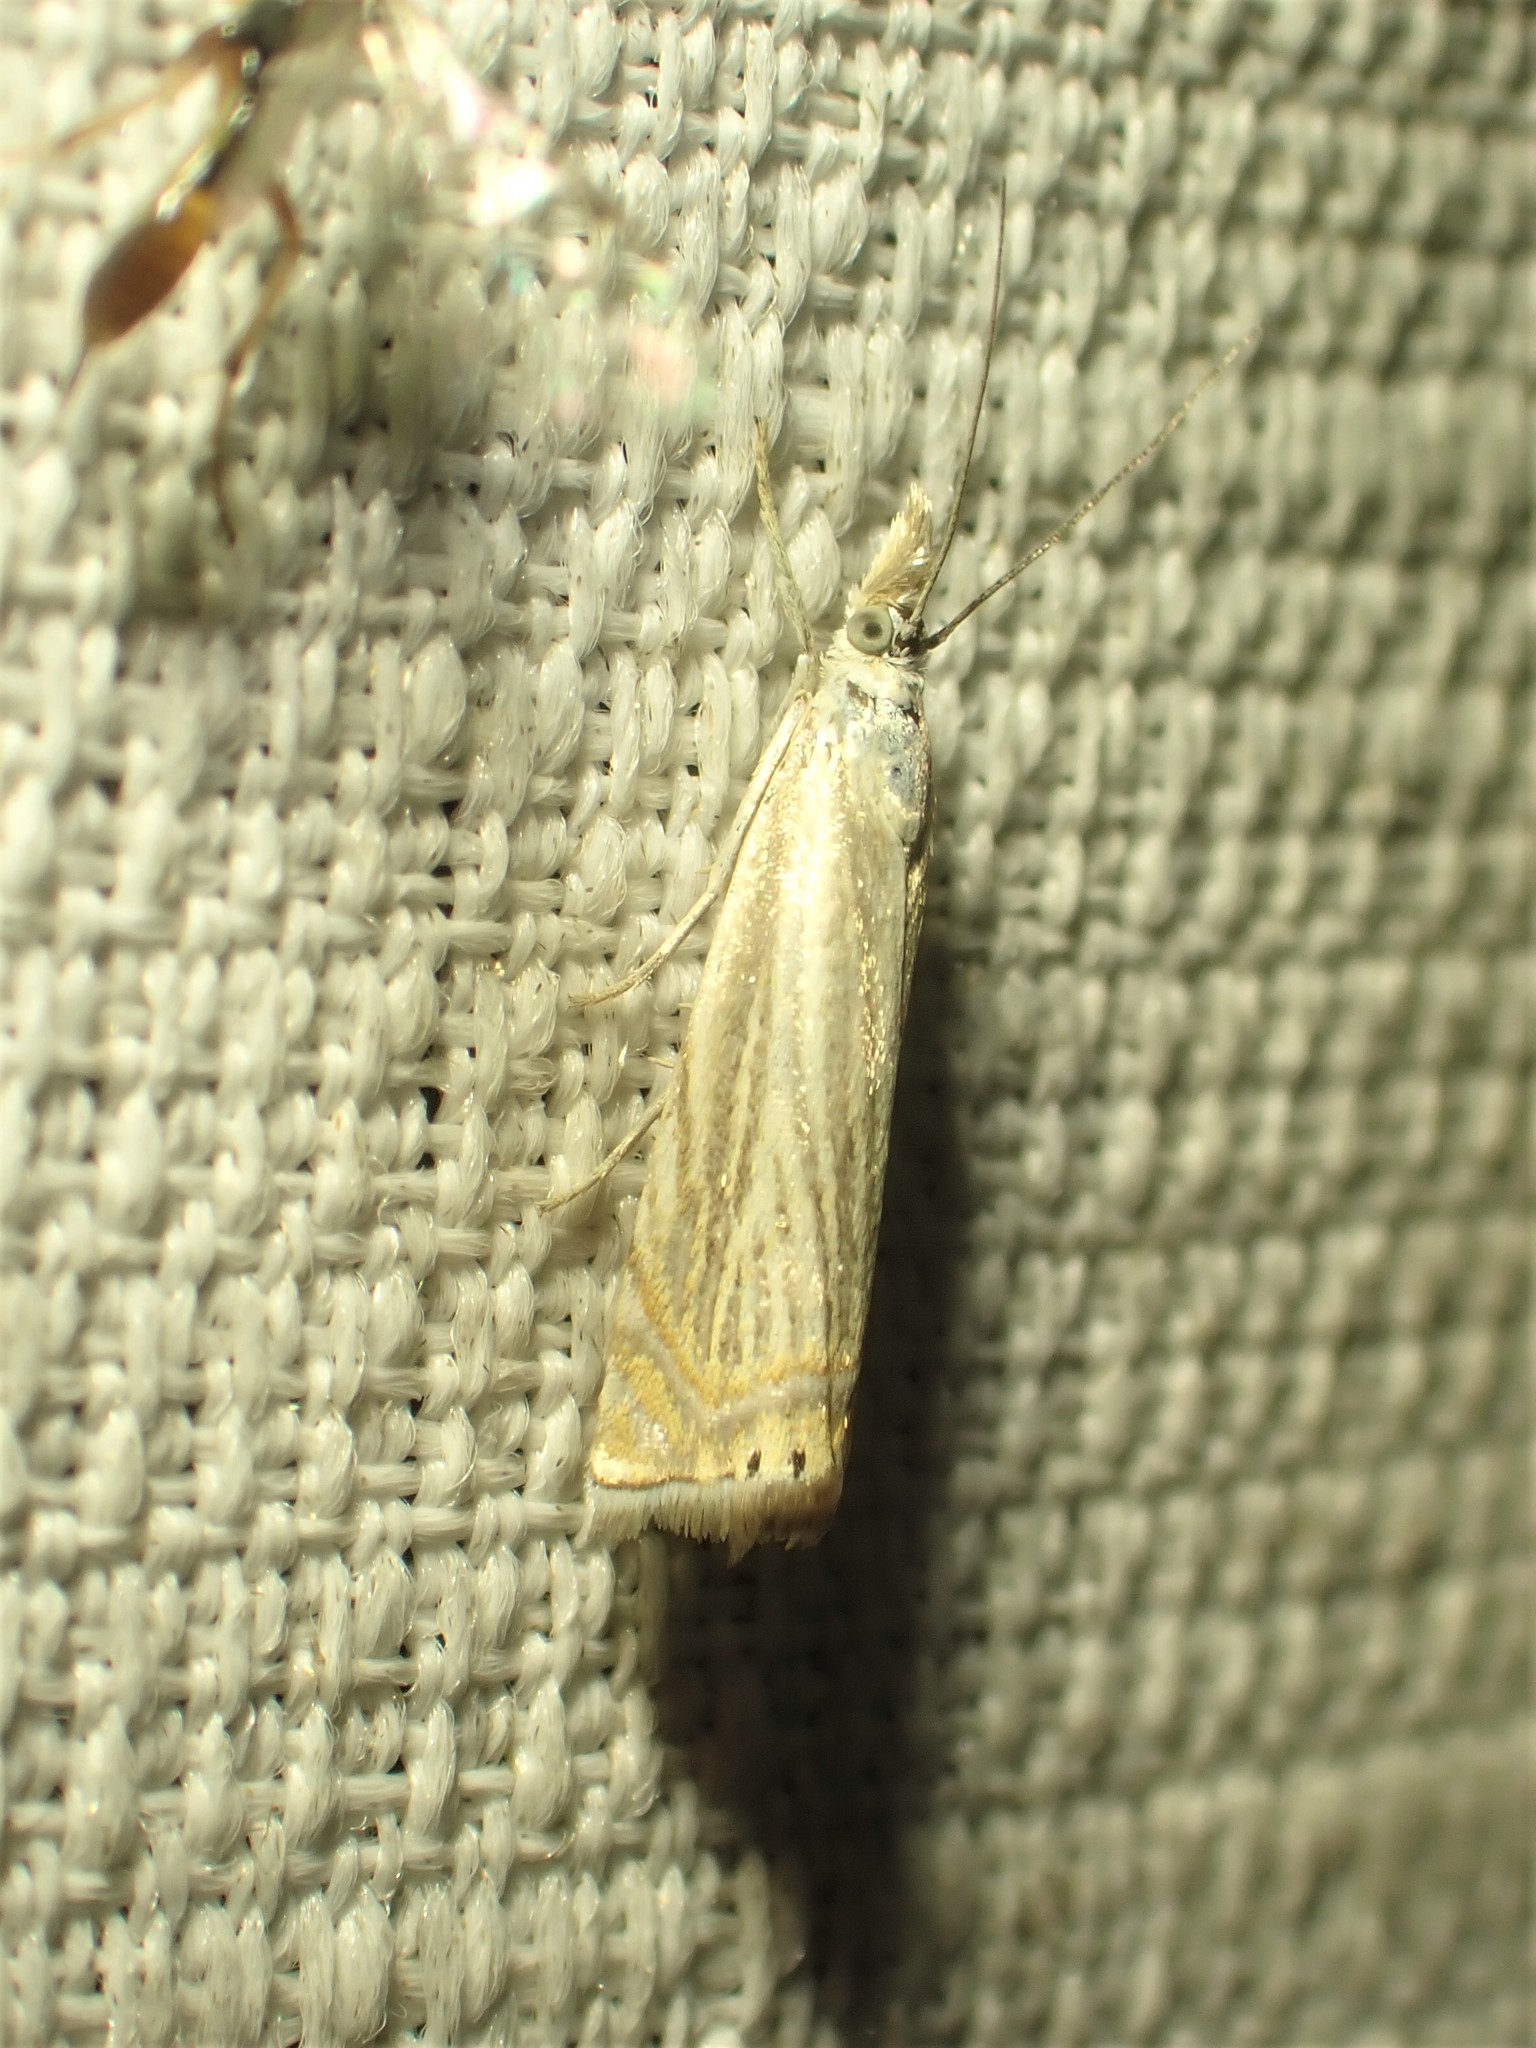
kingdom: Animalia
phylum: Arthropoda
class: Insecta
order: Lepidoptera
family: Crambidae
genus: Chrysoteuchia
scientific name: Chrysoteuchia topiarius
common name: Topiary grass-veneer
